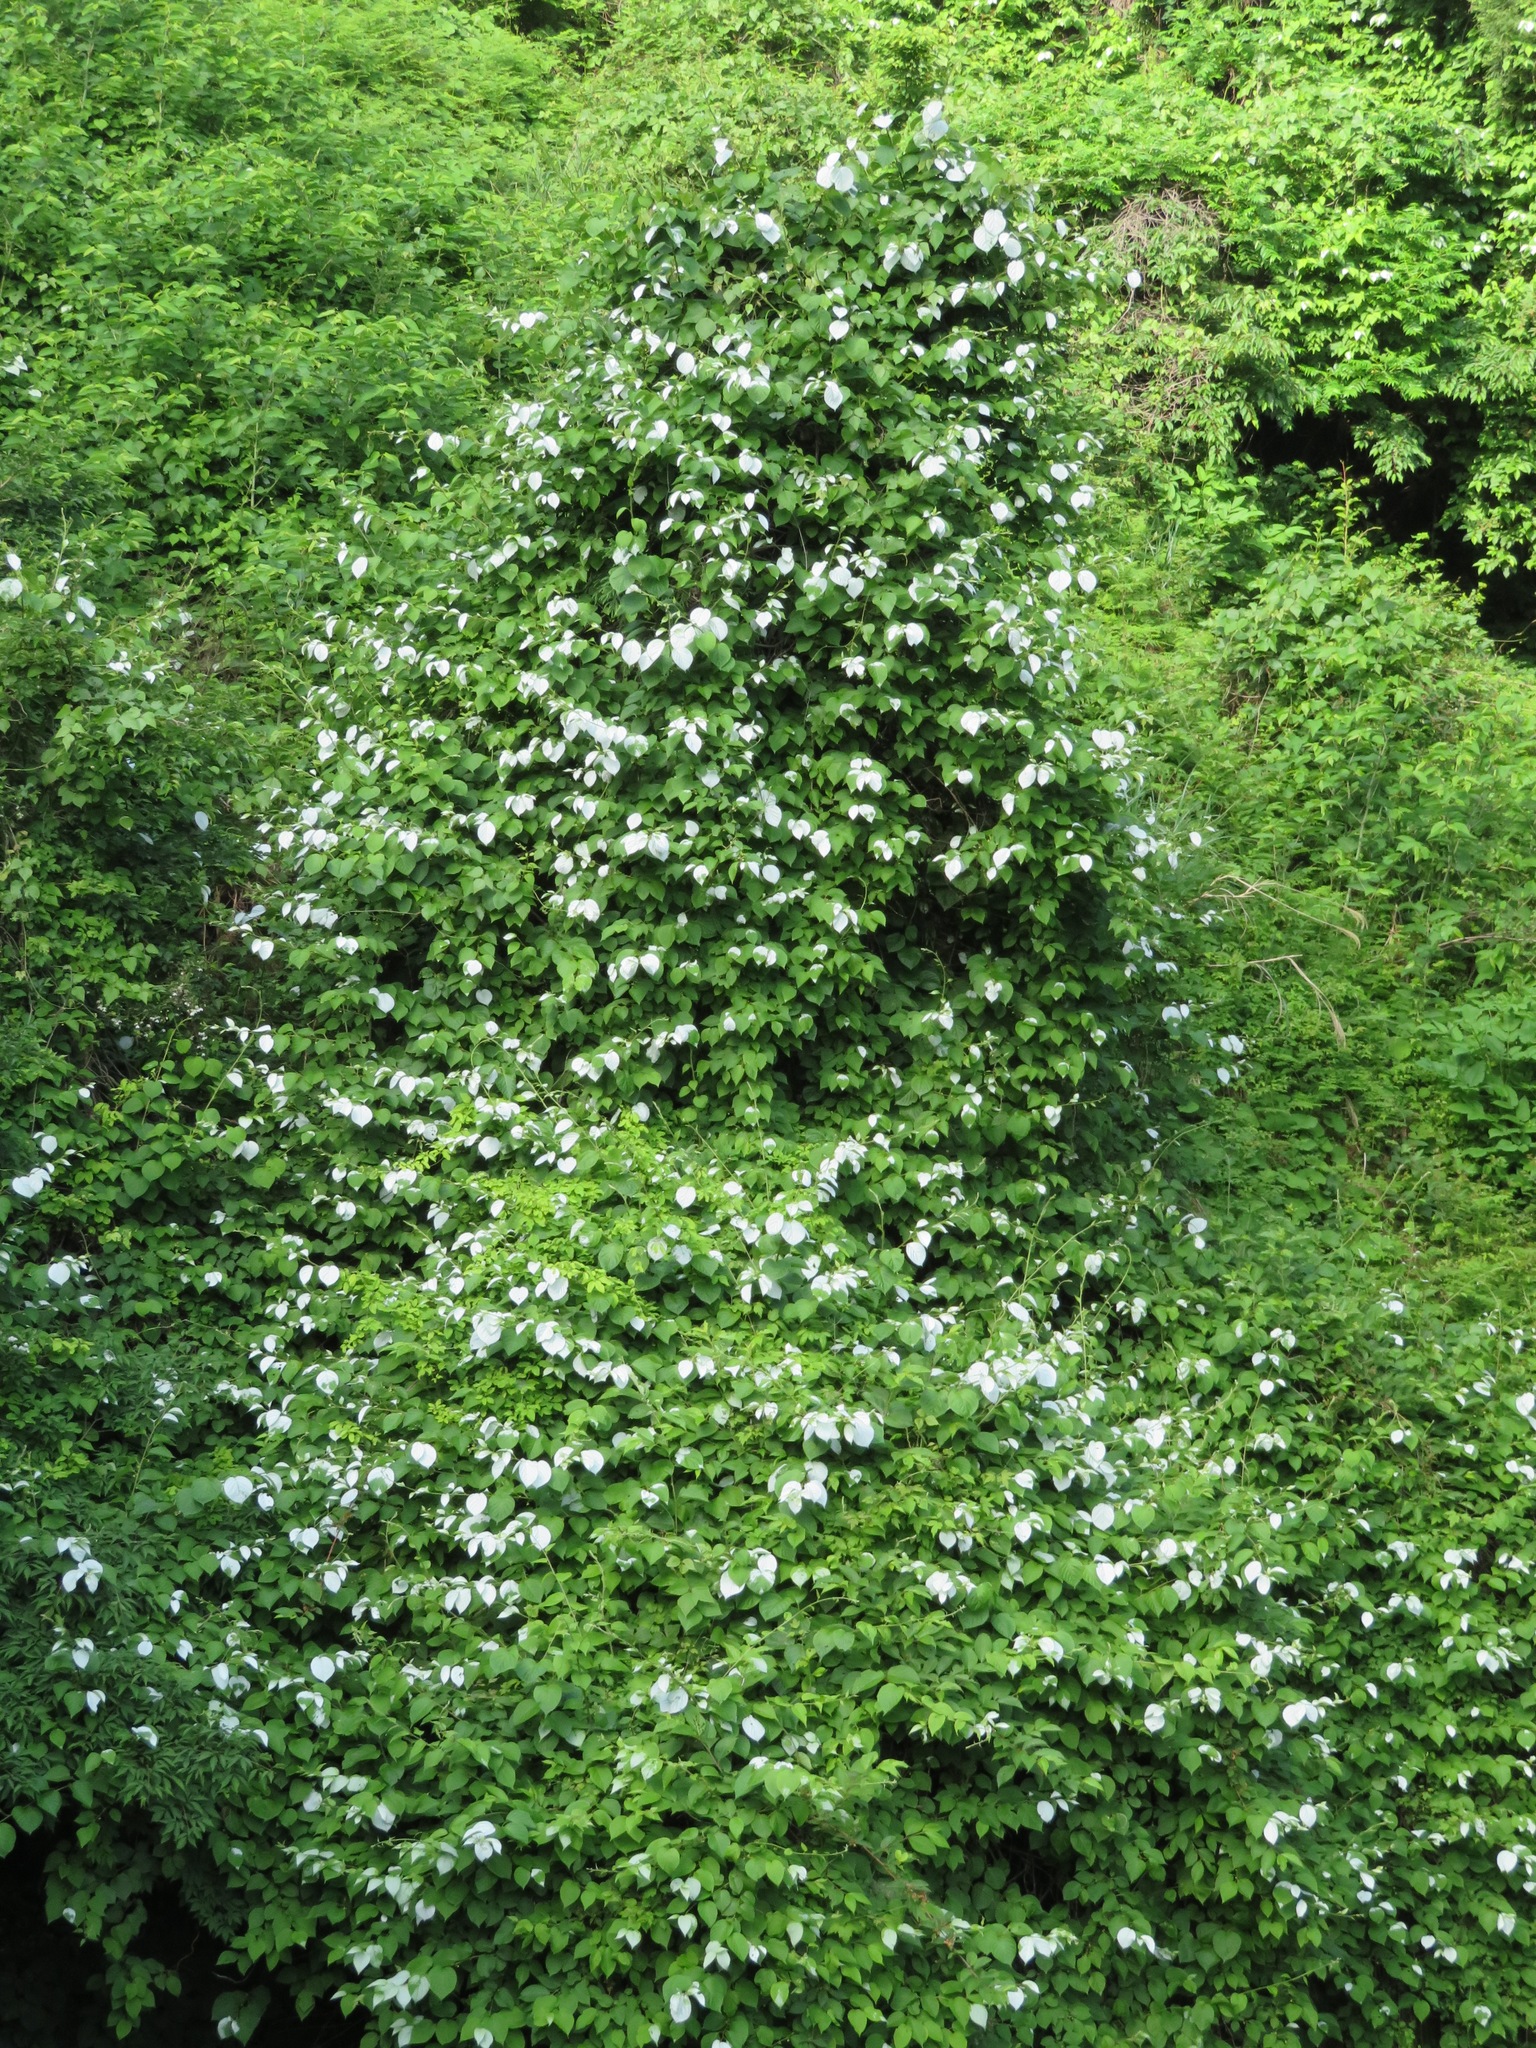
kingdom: Plantae
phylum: Tracheophyta
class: Magnoliopsida
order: Ericales
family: Actinidiaceae
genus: Actinidia
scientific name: Actinidia polygama
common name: Silver vine
